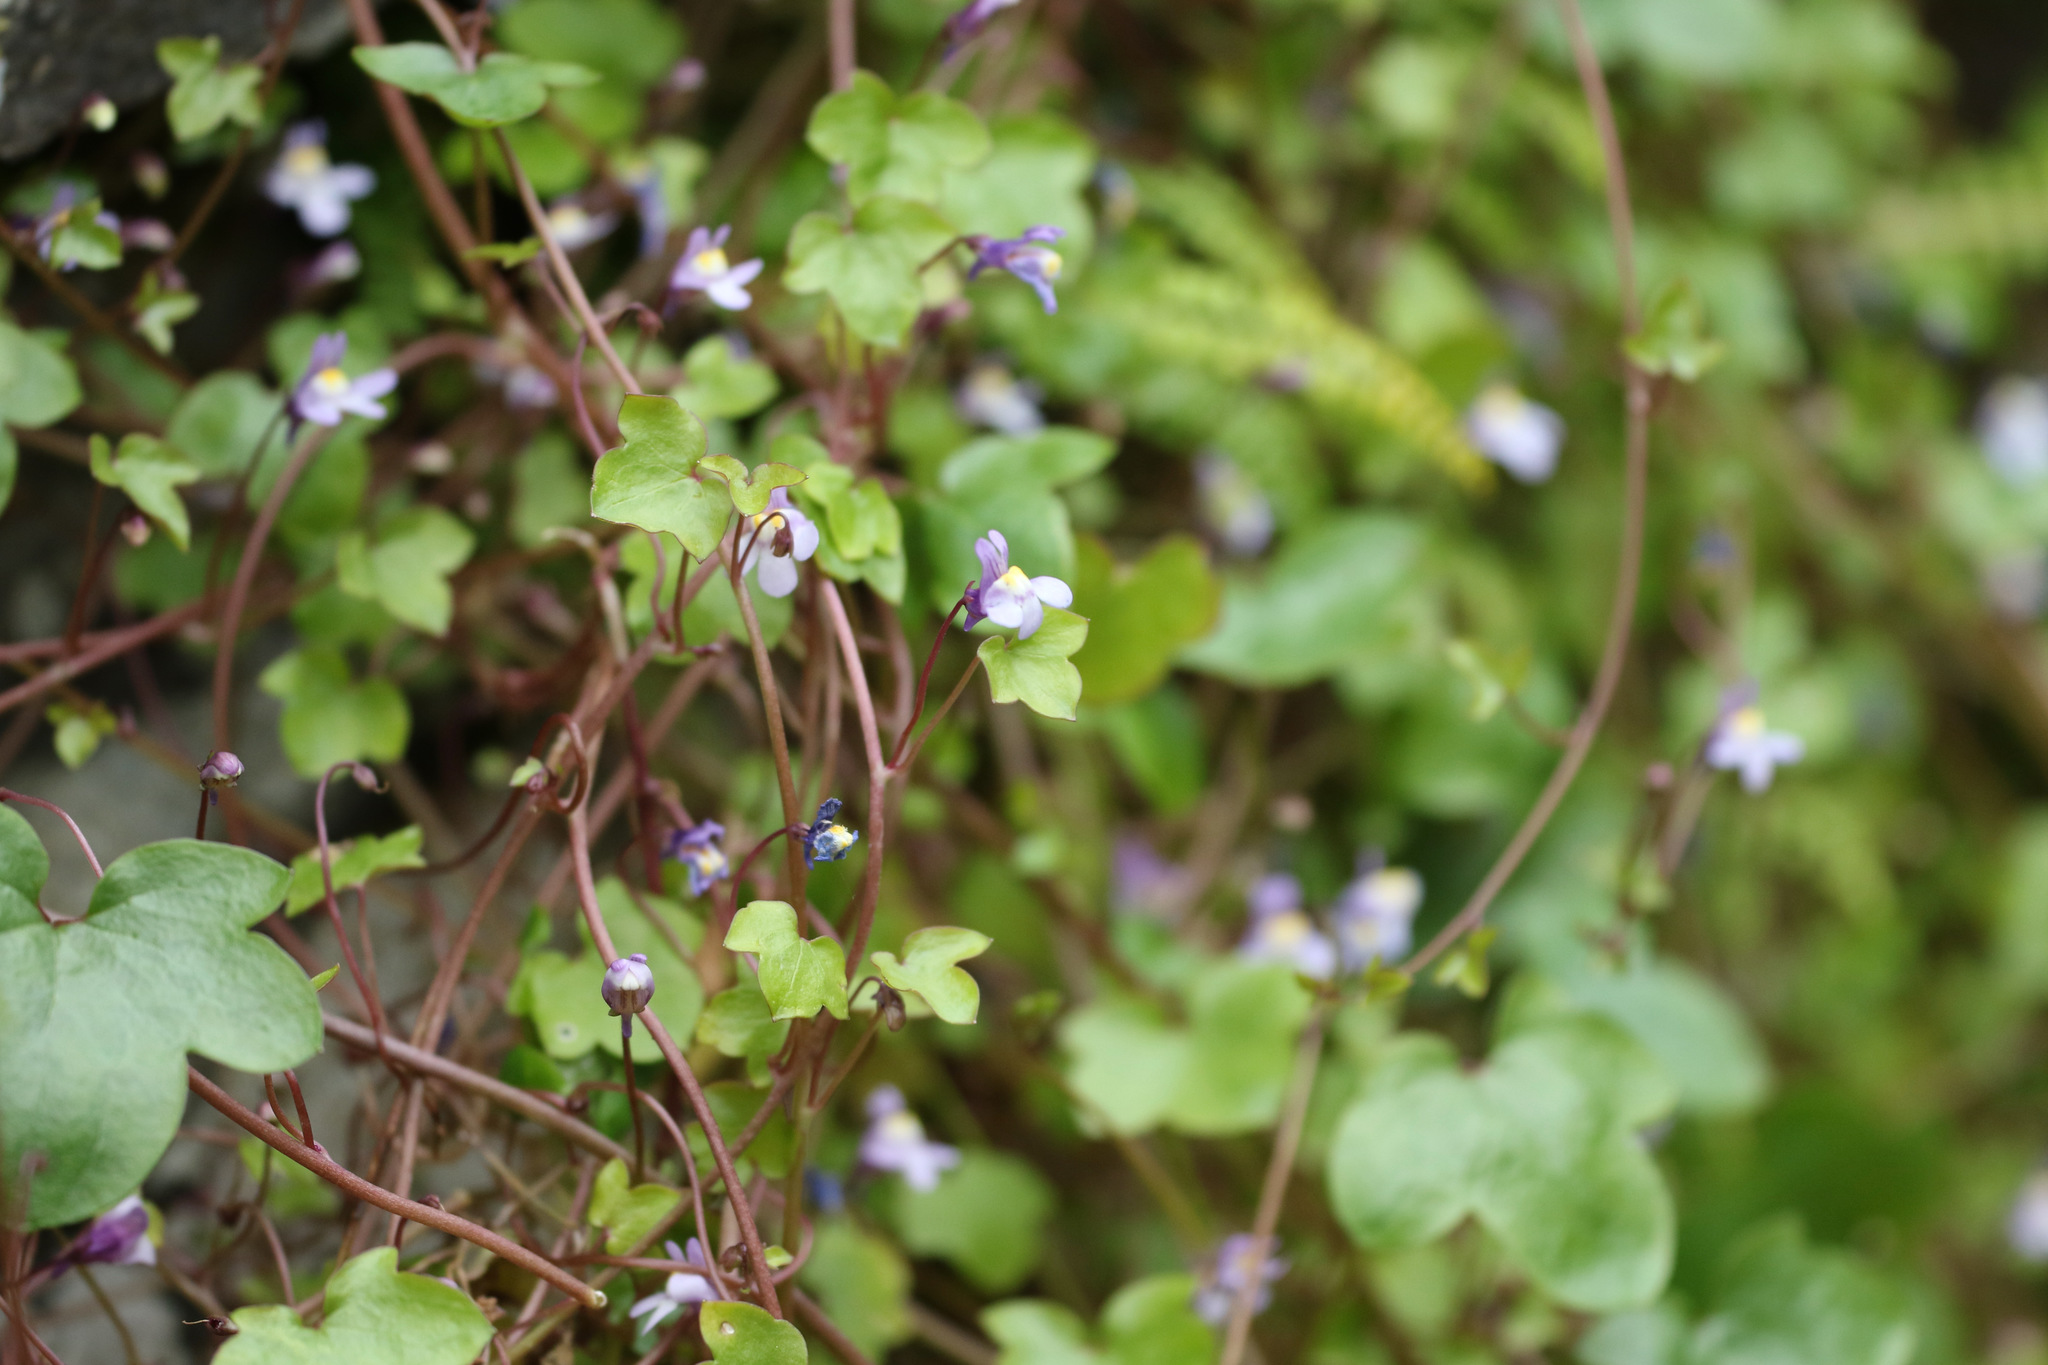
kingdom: Plantae
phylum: Tracheophyta
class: Magnoliopsida
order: Lamiales
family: Plantaginaceae
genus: Cymbalaria
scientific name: Cymbalaria muralis
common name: Ivy-leaved toadflax
